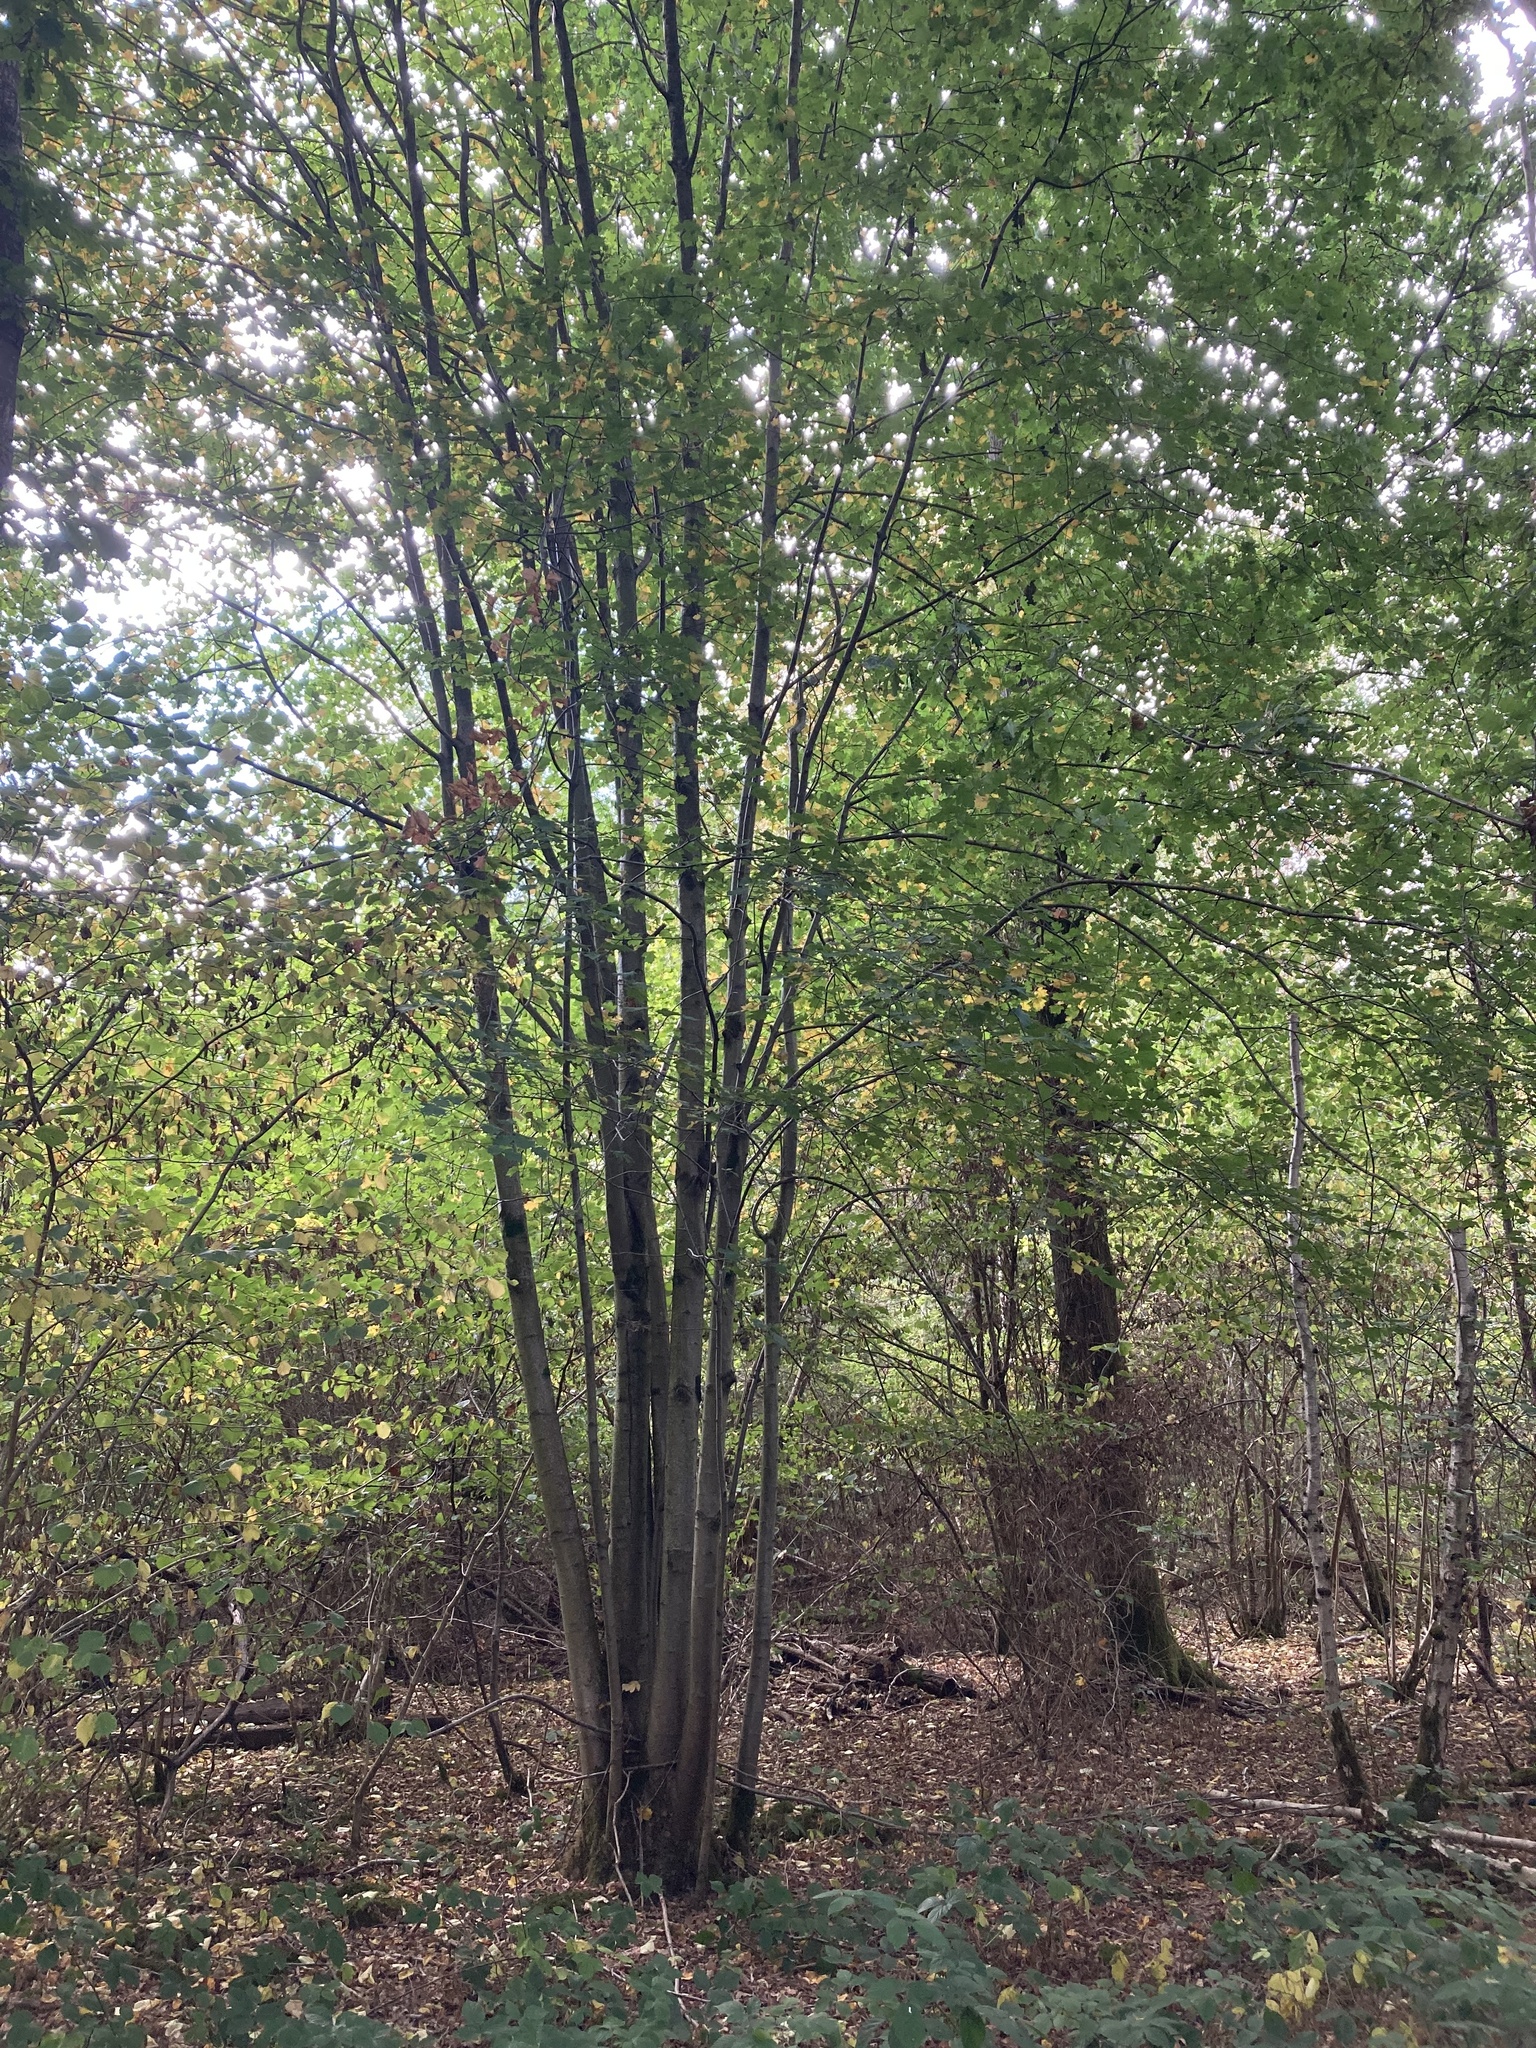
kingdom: Plantae
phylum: Tracheophyta
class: Magnoliopsida
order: Rosales
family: Rosaceae
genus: Torminalis
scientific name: Torminalis glaberrima
